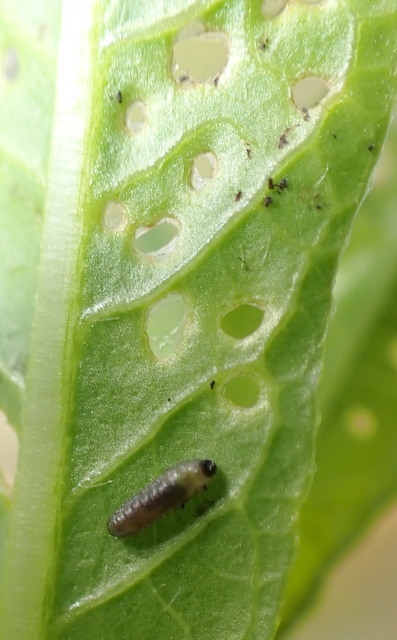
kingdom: Animalia
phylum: Arthropoda
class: Insecta
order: Coleoptera
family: Chrysomelidae
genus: Agasicles
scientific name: Agasicles hygrophila
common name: Alligatorweed flea beetle
